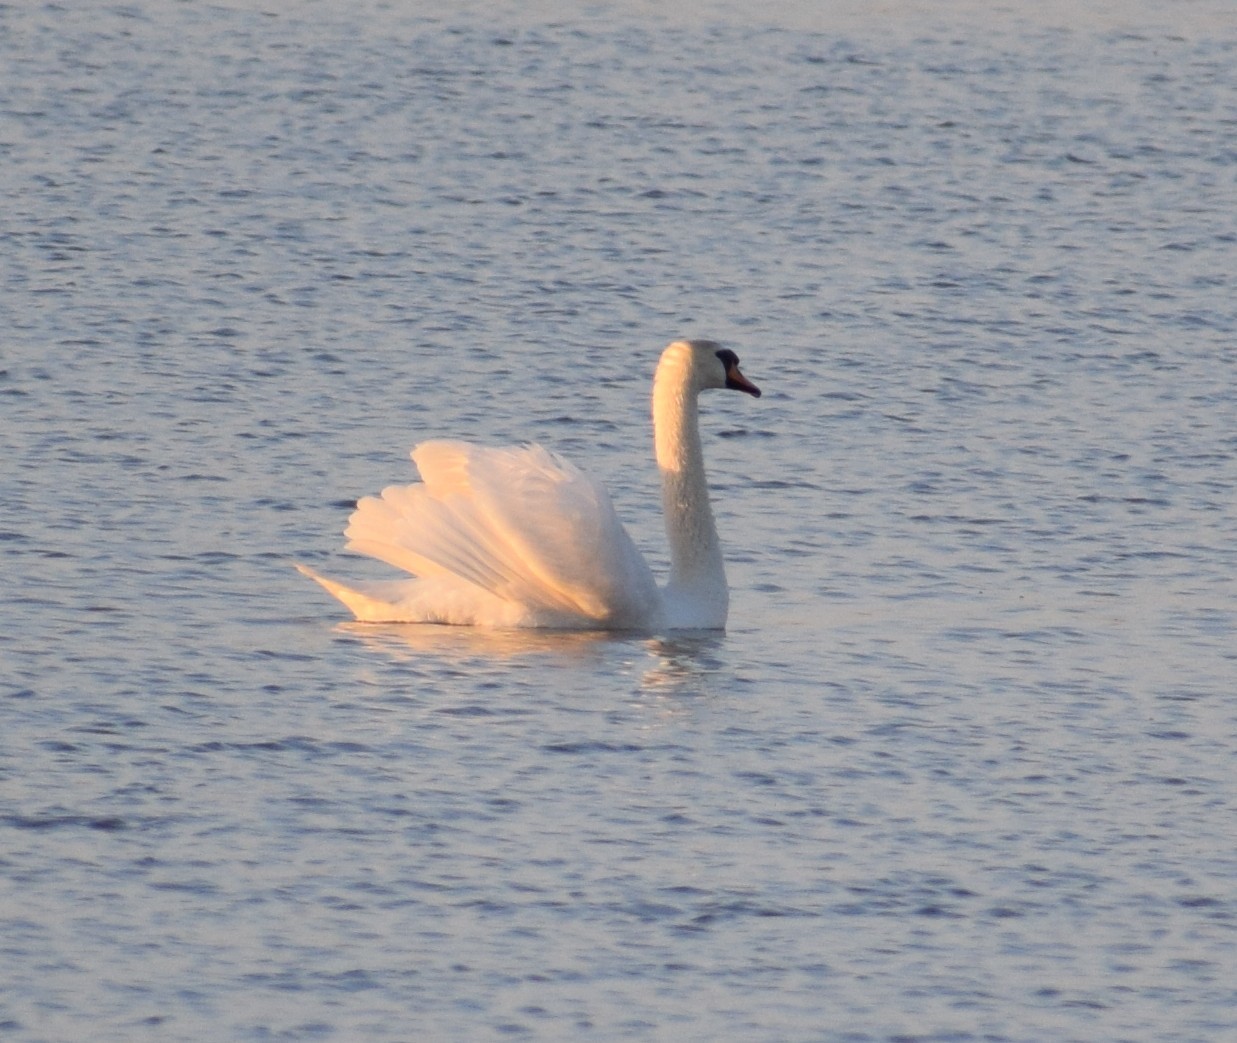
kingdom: Animalia
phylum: Chordata
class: Aves
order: Anseriformes
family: Anatidae
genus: Cygnus
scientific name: Cygnus olor
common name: Mute swan
